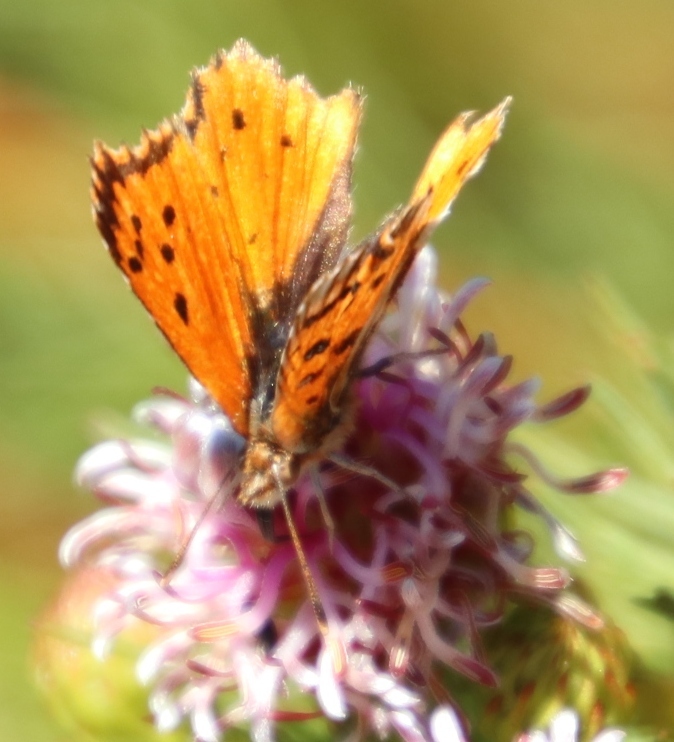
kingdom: Animalia
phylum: Arthropoda
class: Insecta
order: Lepidoptera
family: Lycaenidae
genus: Chrysoritis
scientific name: Chrysoritis
